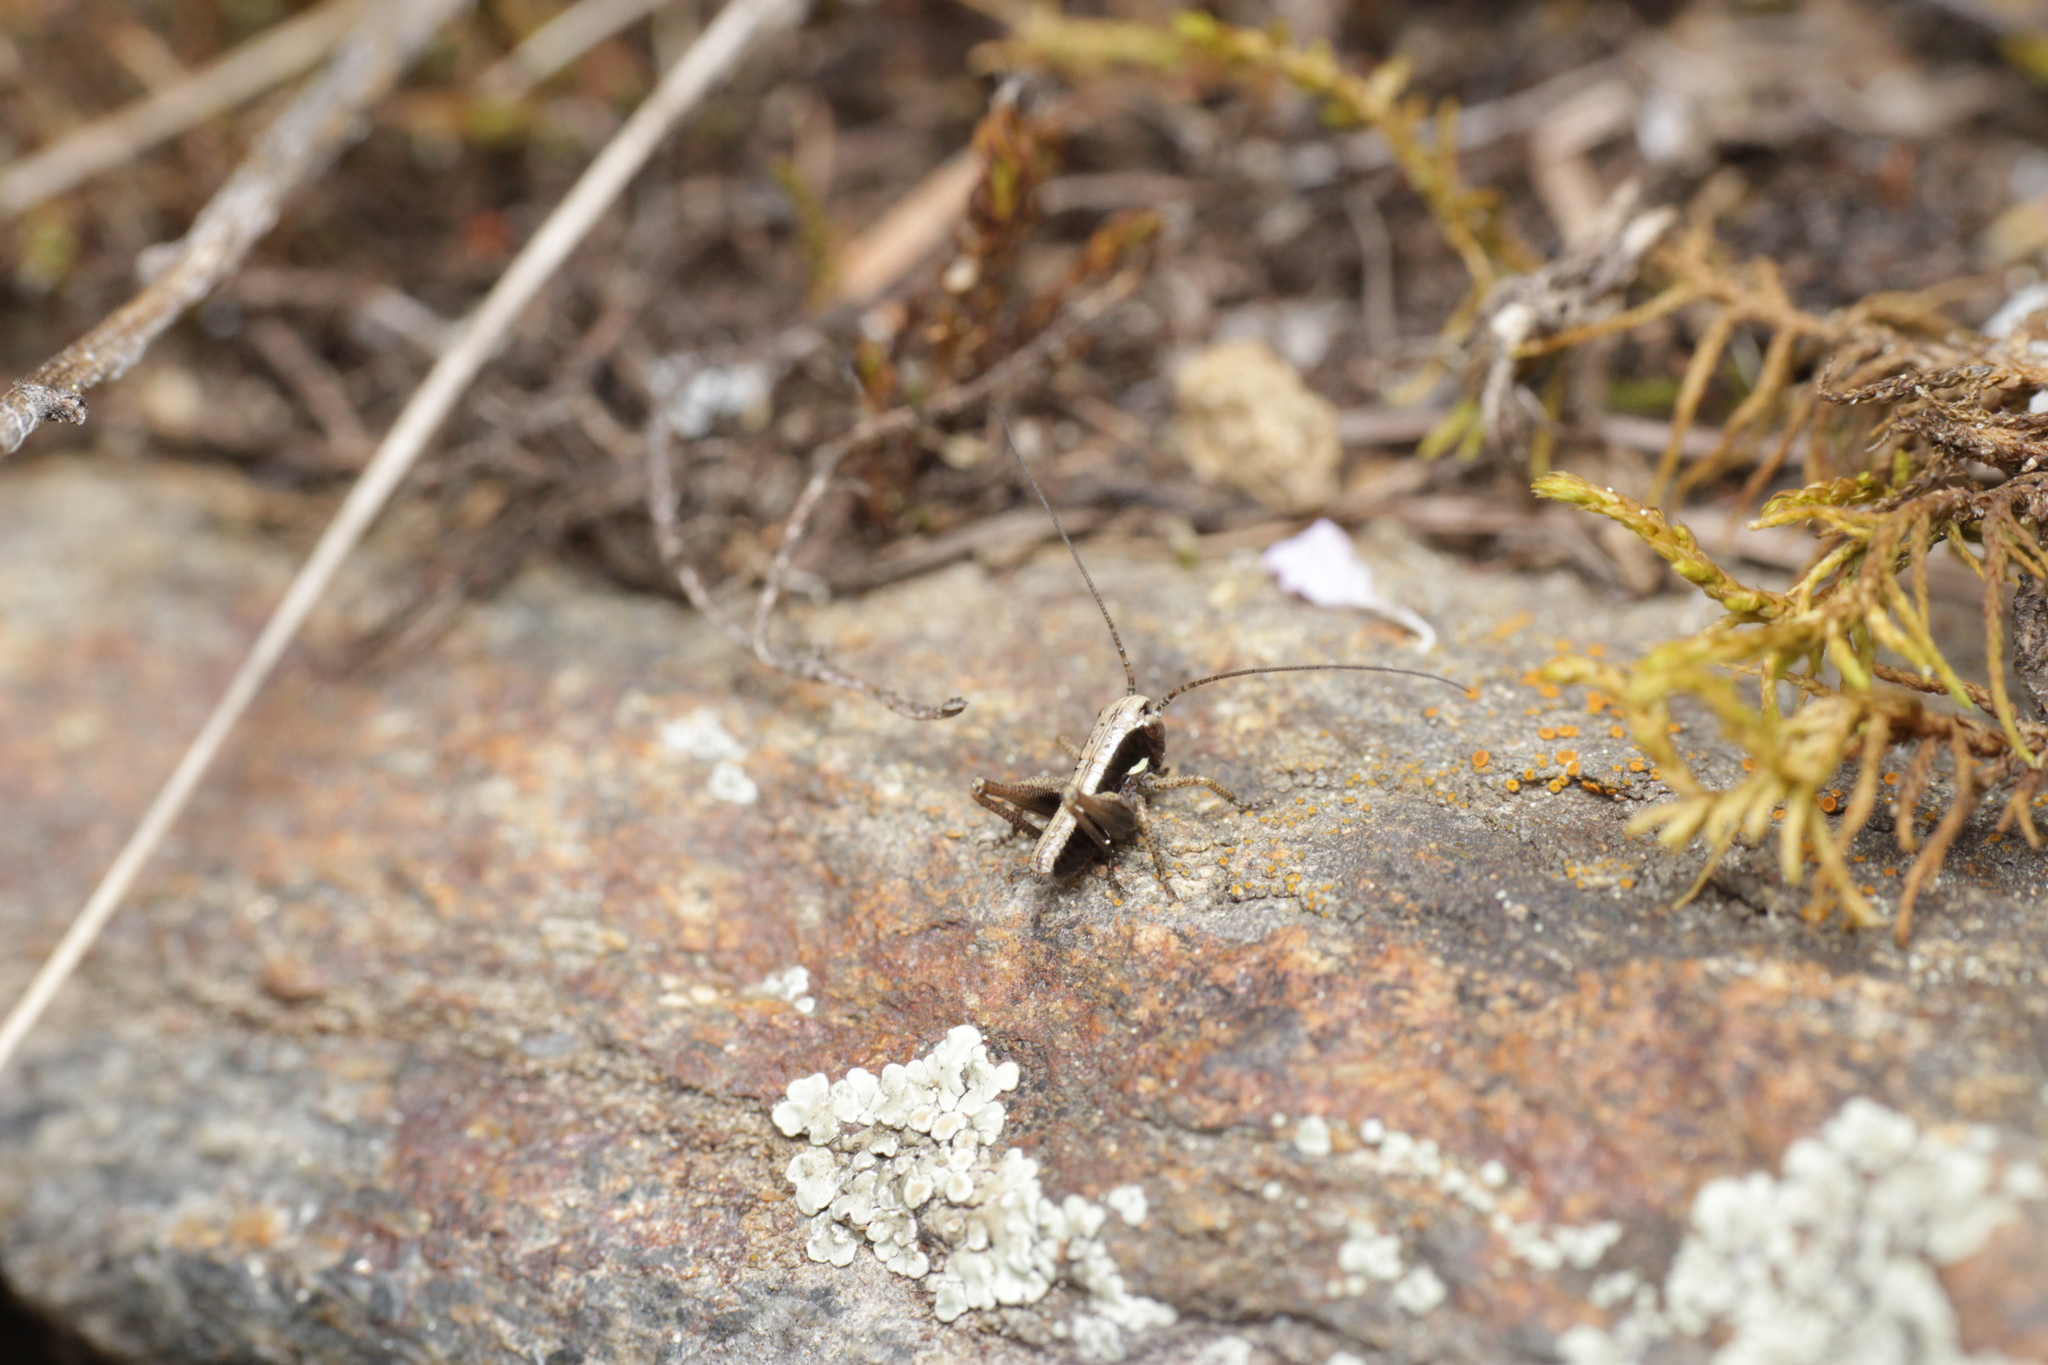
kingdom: Animalia
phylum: Arthropoda
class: Insecta
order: Orthoptera
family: Tettigoniidae
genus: Platycleis
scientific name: Platycleis grisea
